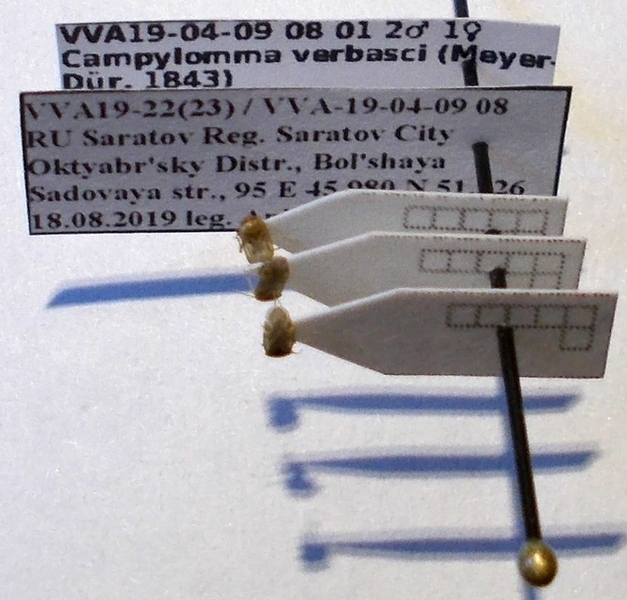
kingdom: Animalia
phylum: Arthropoda
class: Insecta
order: Hemiptera
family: Miridae
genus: Campylomma
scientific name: Campylomma verbasci
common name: Mullein bug
